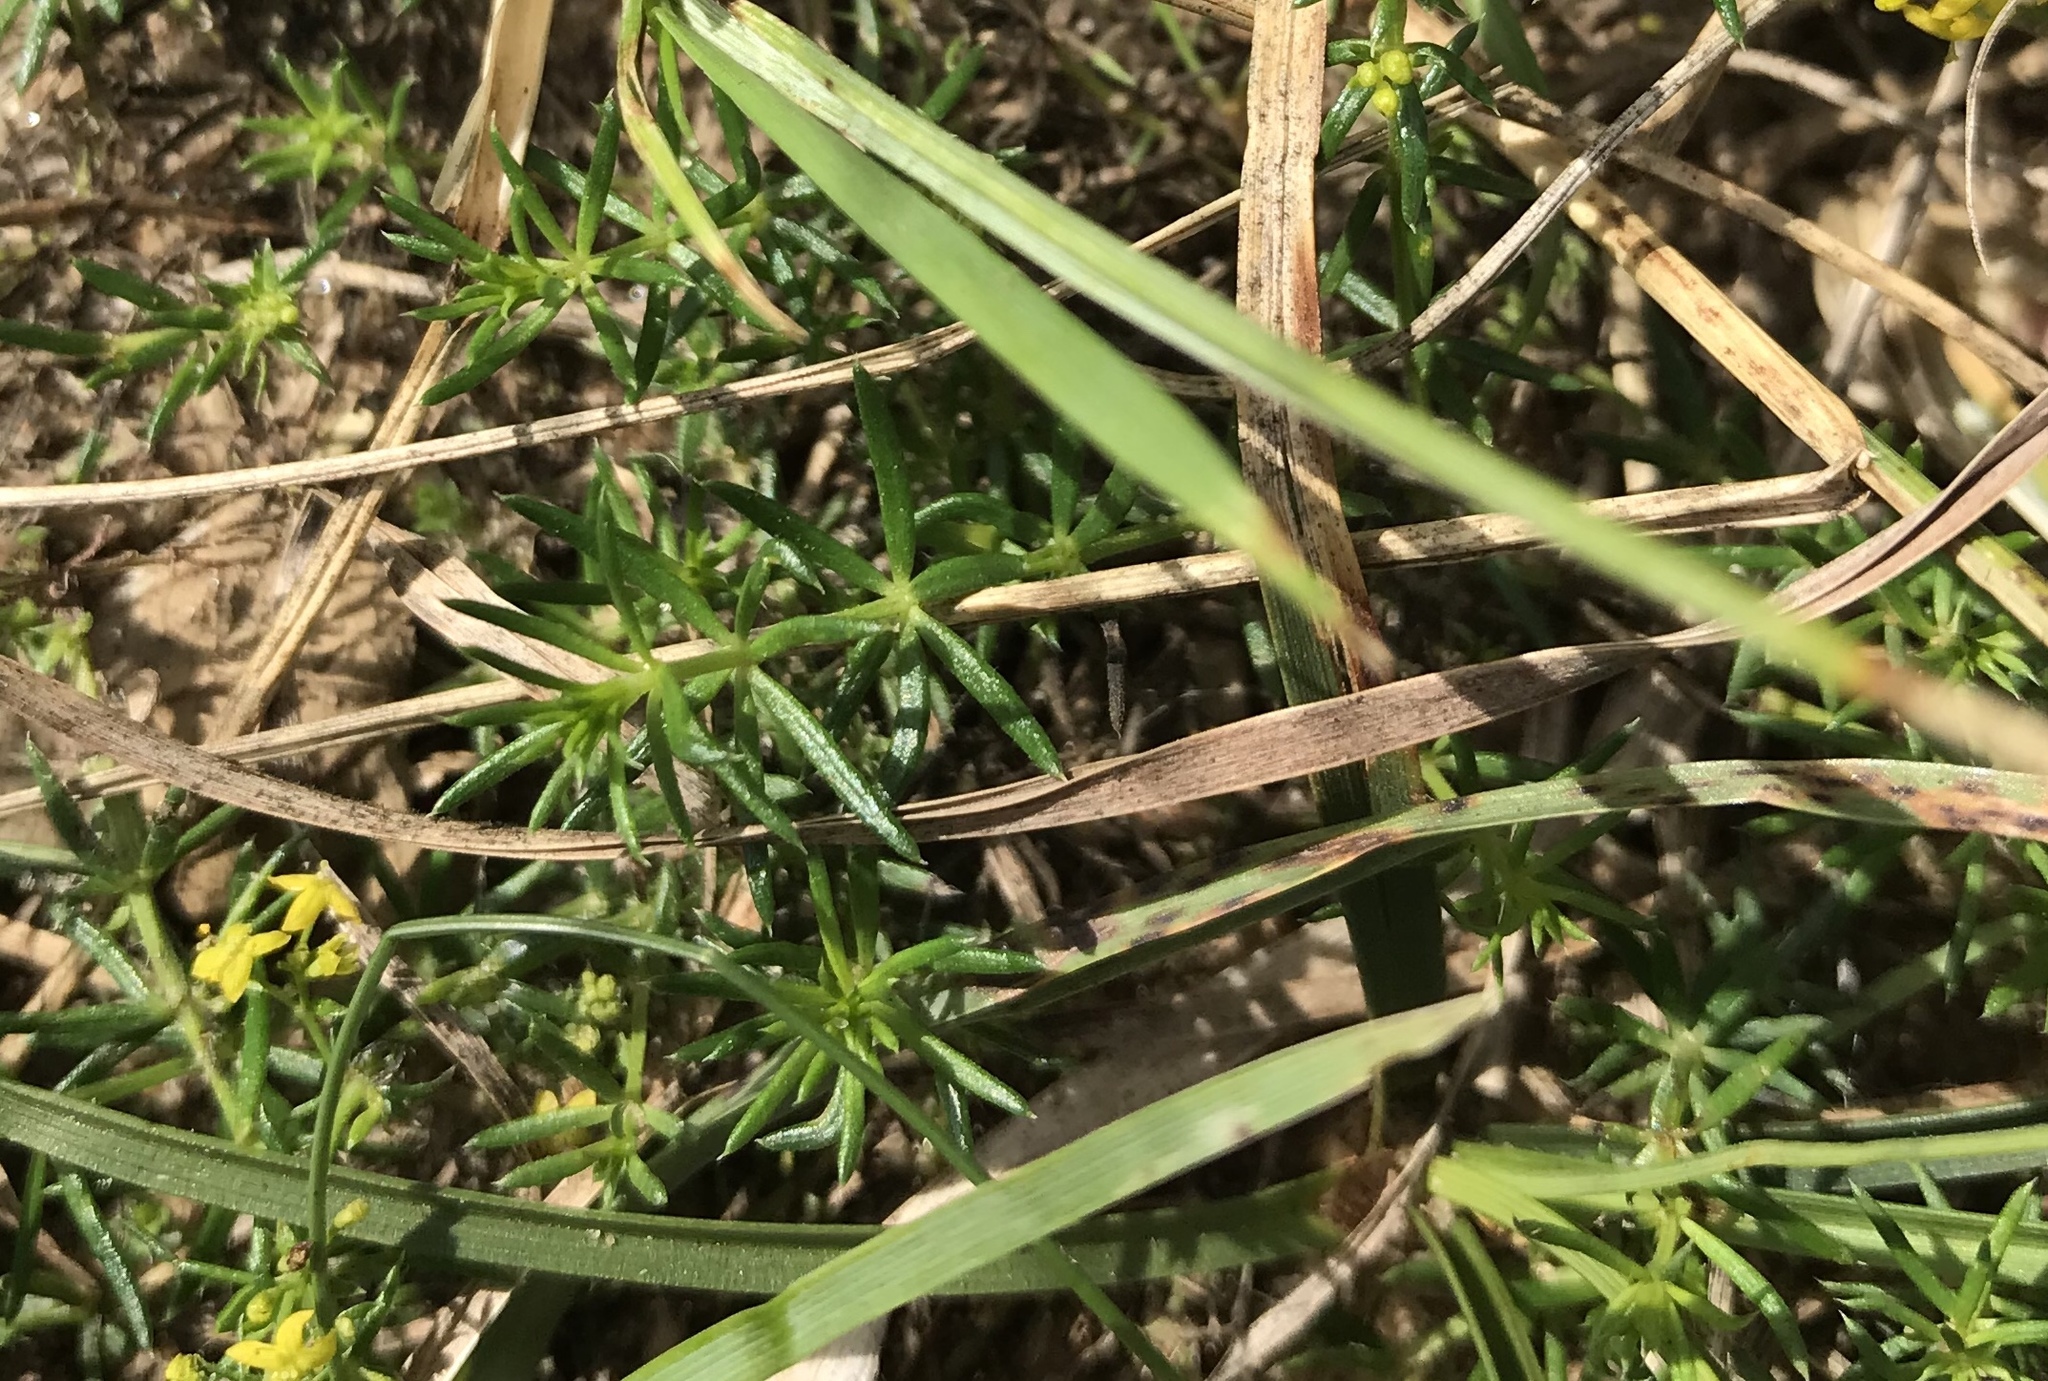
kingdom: Plantae
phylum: Tracheophyta
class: Magnoliopsida
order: Gentianales
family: Rubiaceae
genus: Galium
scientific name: Galium verum
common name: Lady's bedstraw
